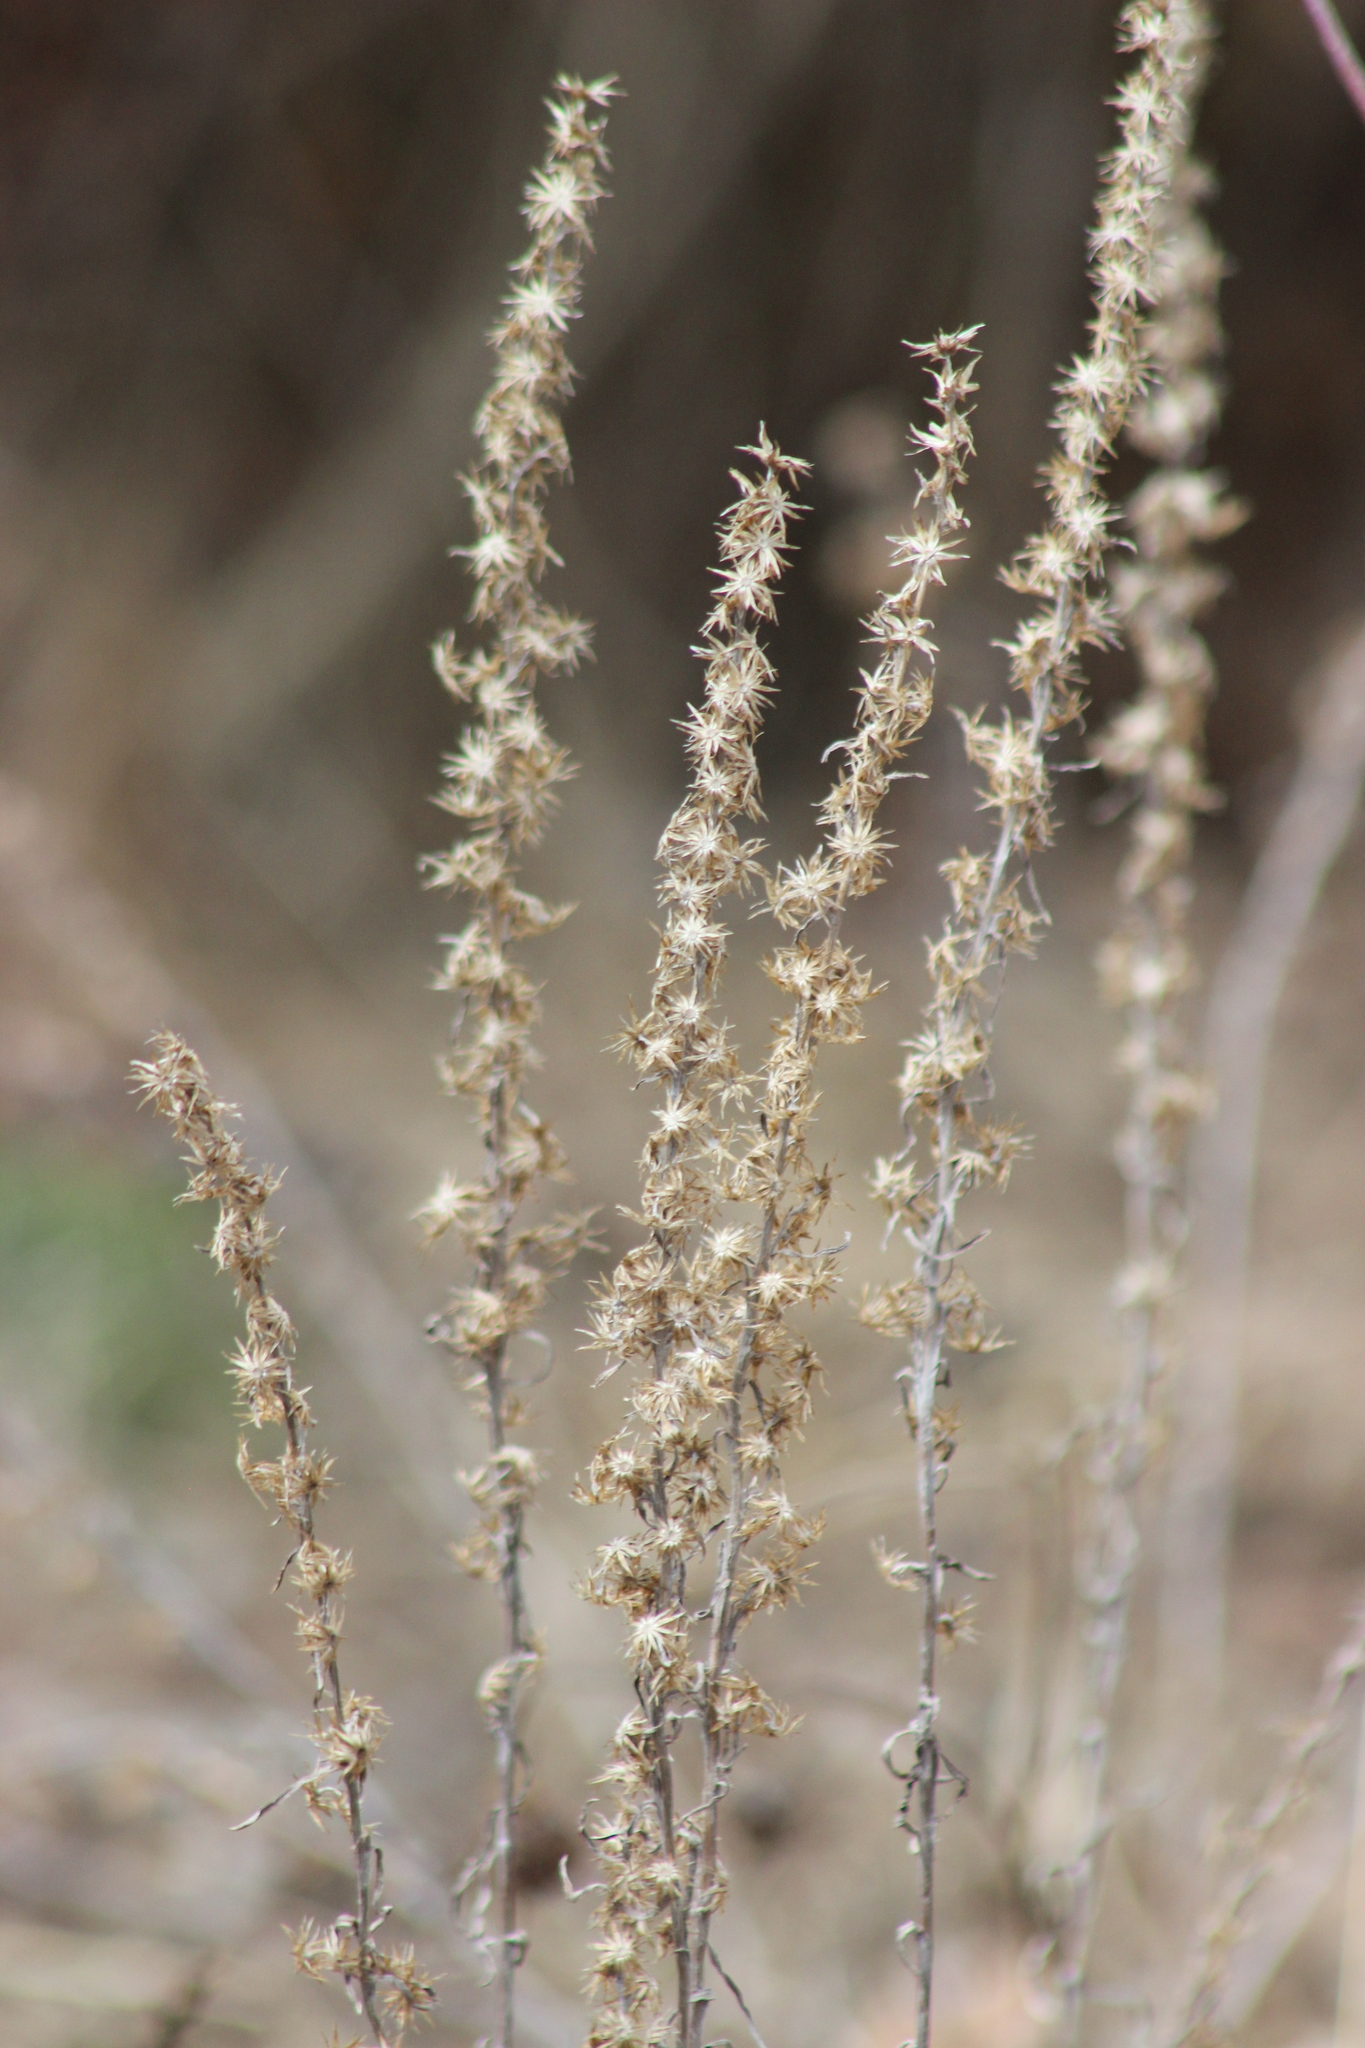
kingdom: Plantae
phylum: Tracheophyta
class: Magnoliopsida
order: Asterales
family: Asteraceae
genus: Omalotheca
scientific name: Omalotheca sylvatica
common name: Heath cudweed
